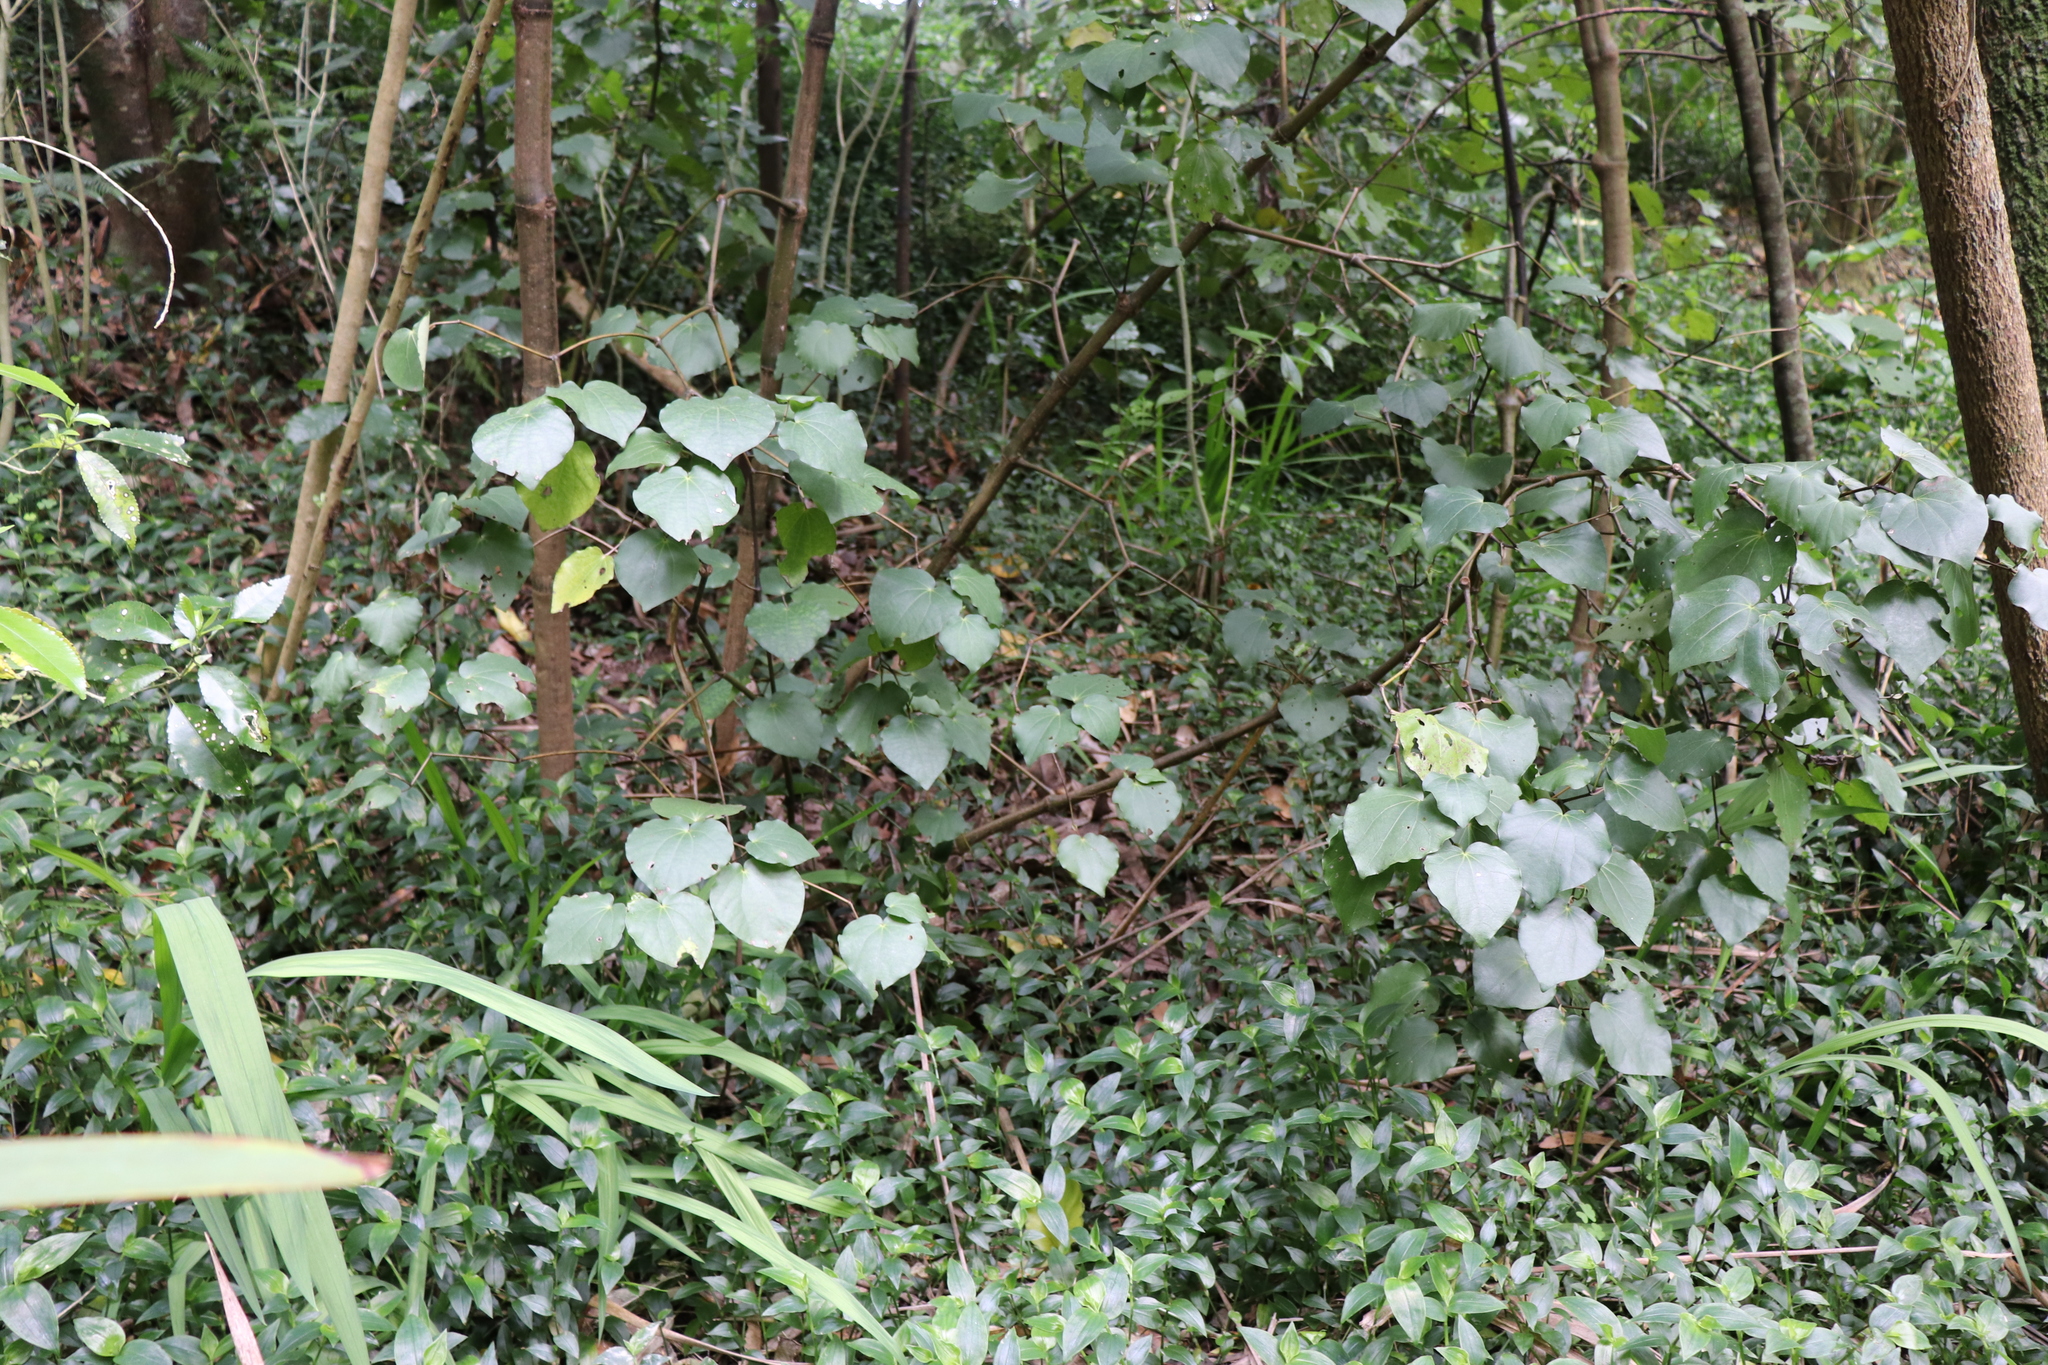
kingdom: Plantae
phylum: Tracheophyta
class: Liliopsida
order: Commelinales
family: Commelinaceae
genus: Tradescantia
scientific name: Tradescantia fluminensis
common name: Wandering-jew
